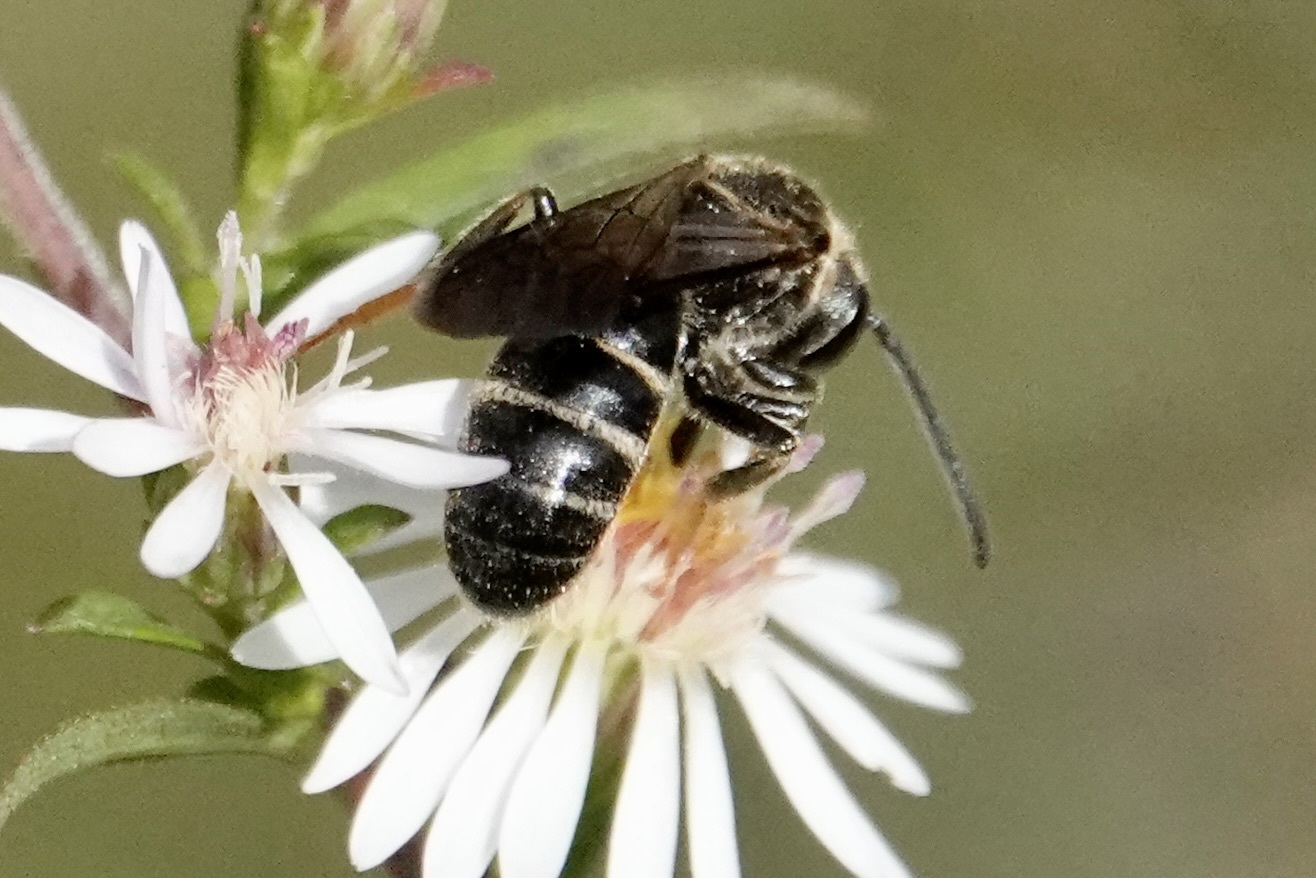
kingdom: Animalia
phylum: Arthropoda
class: Insecta
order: Hymenoptera
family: Halictidae
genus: Lasioglossum
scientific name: Lasioglossum fuscipenne
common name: Brown-winged sweat bee
